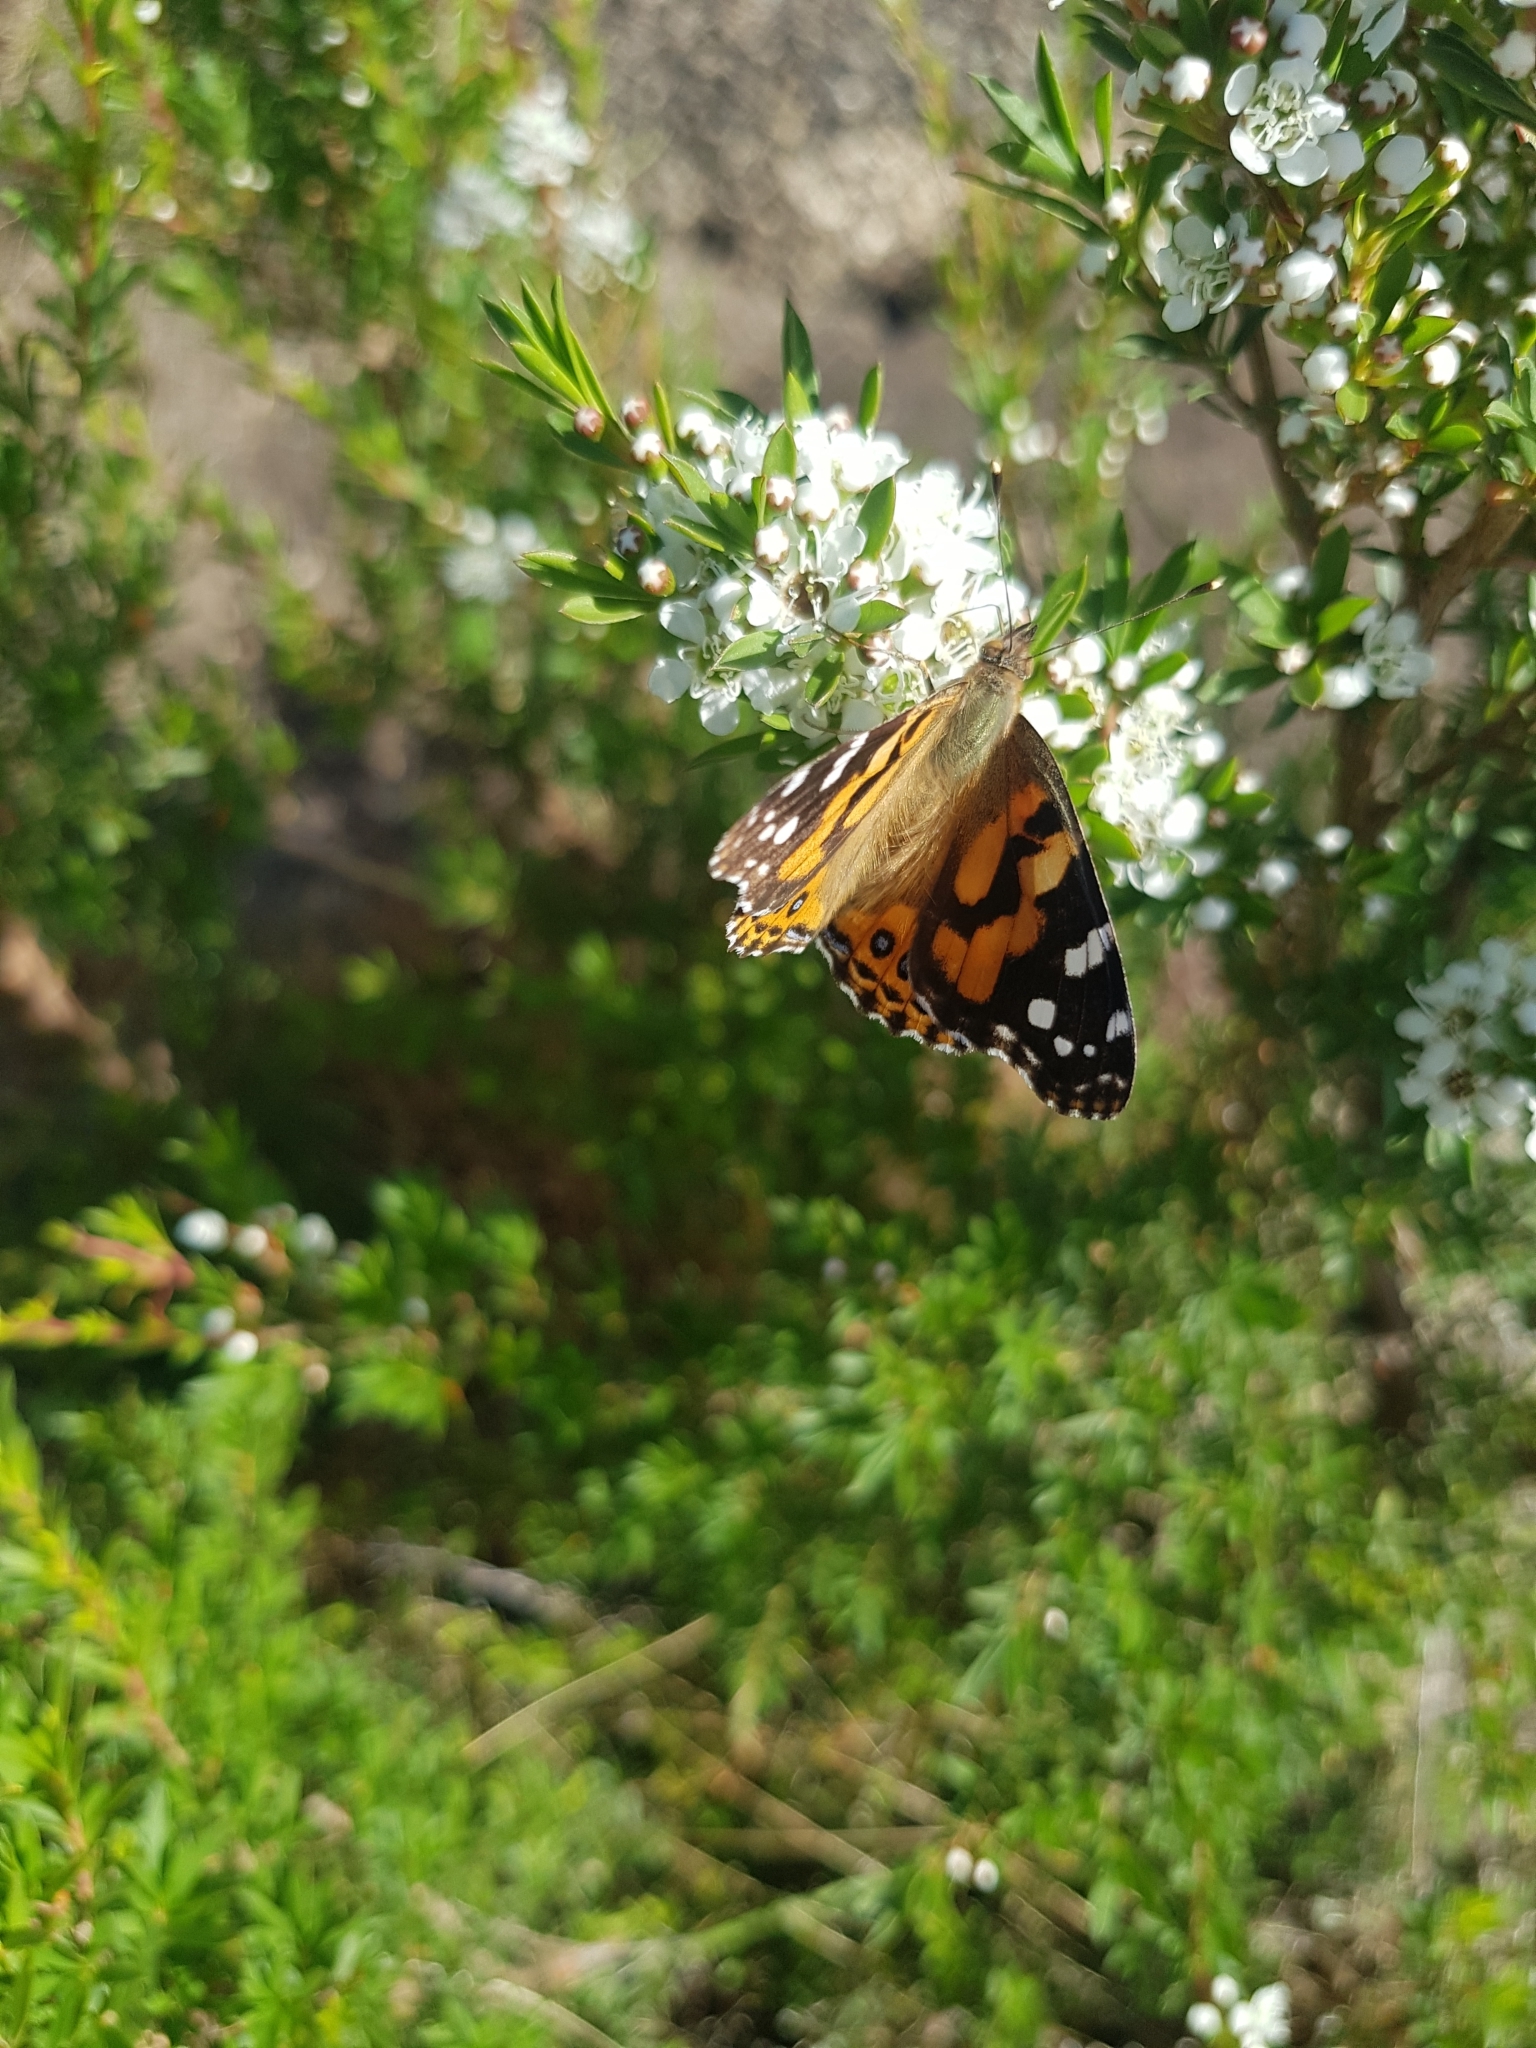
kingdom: Animalia
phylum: Arthropoda
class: Insecta
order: Lepidoptera
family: Nymphalidae
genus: Vanessa
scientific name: Vanessa kershawi
